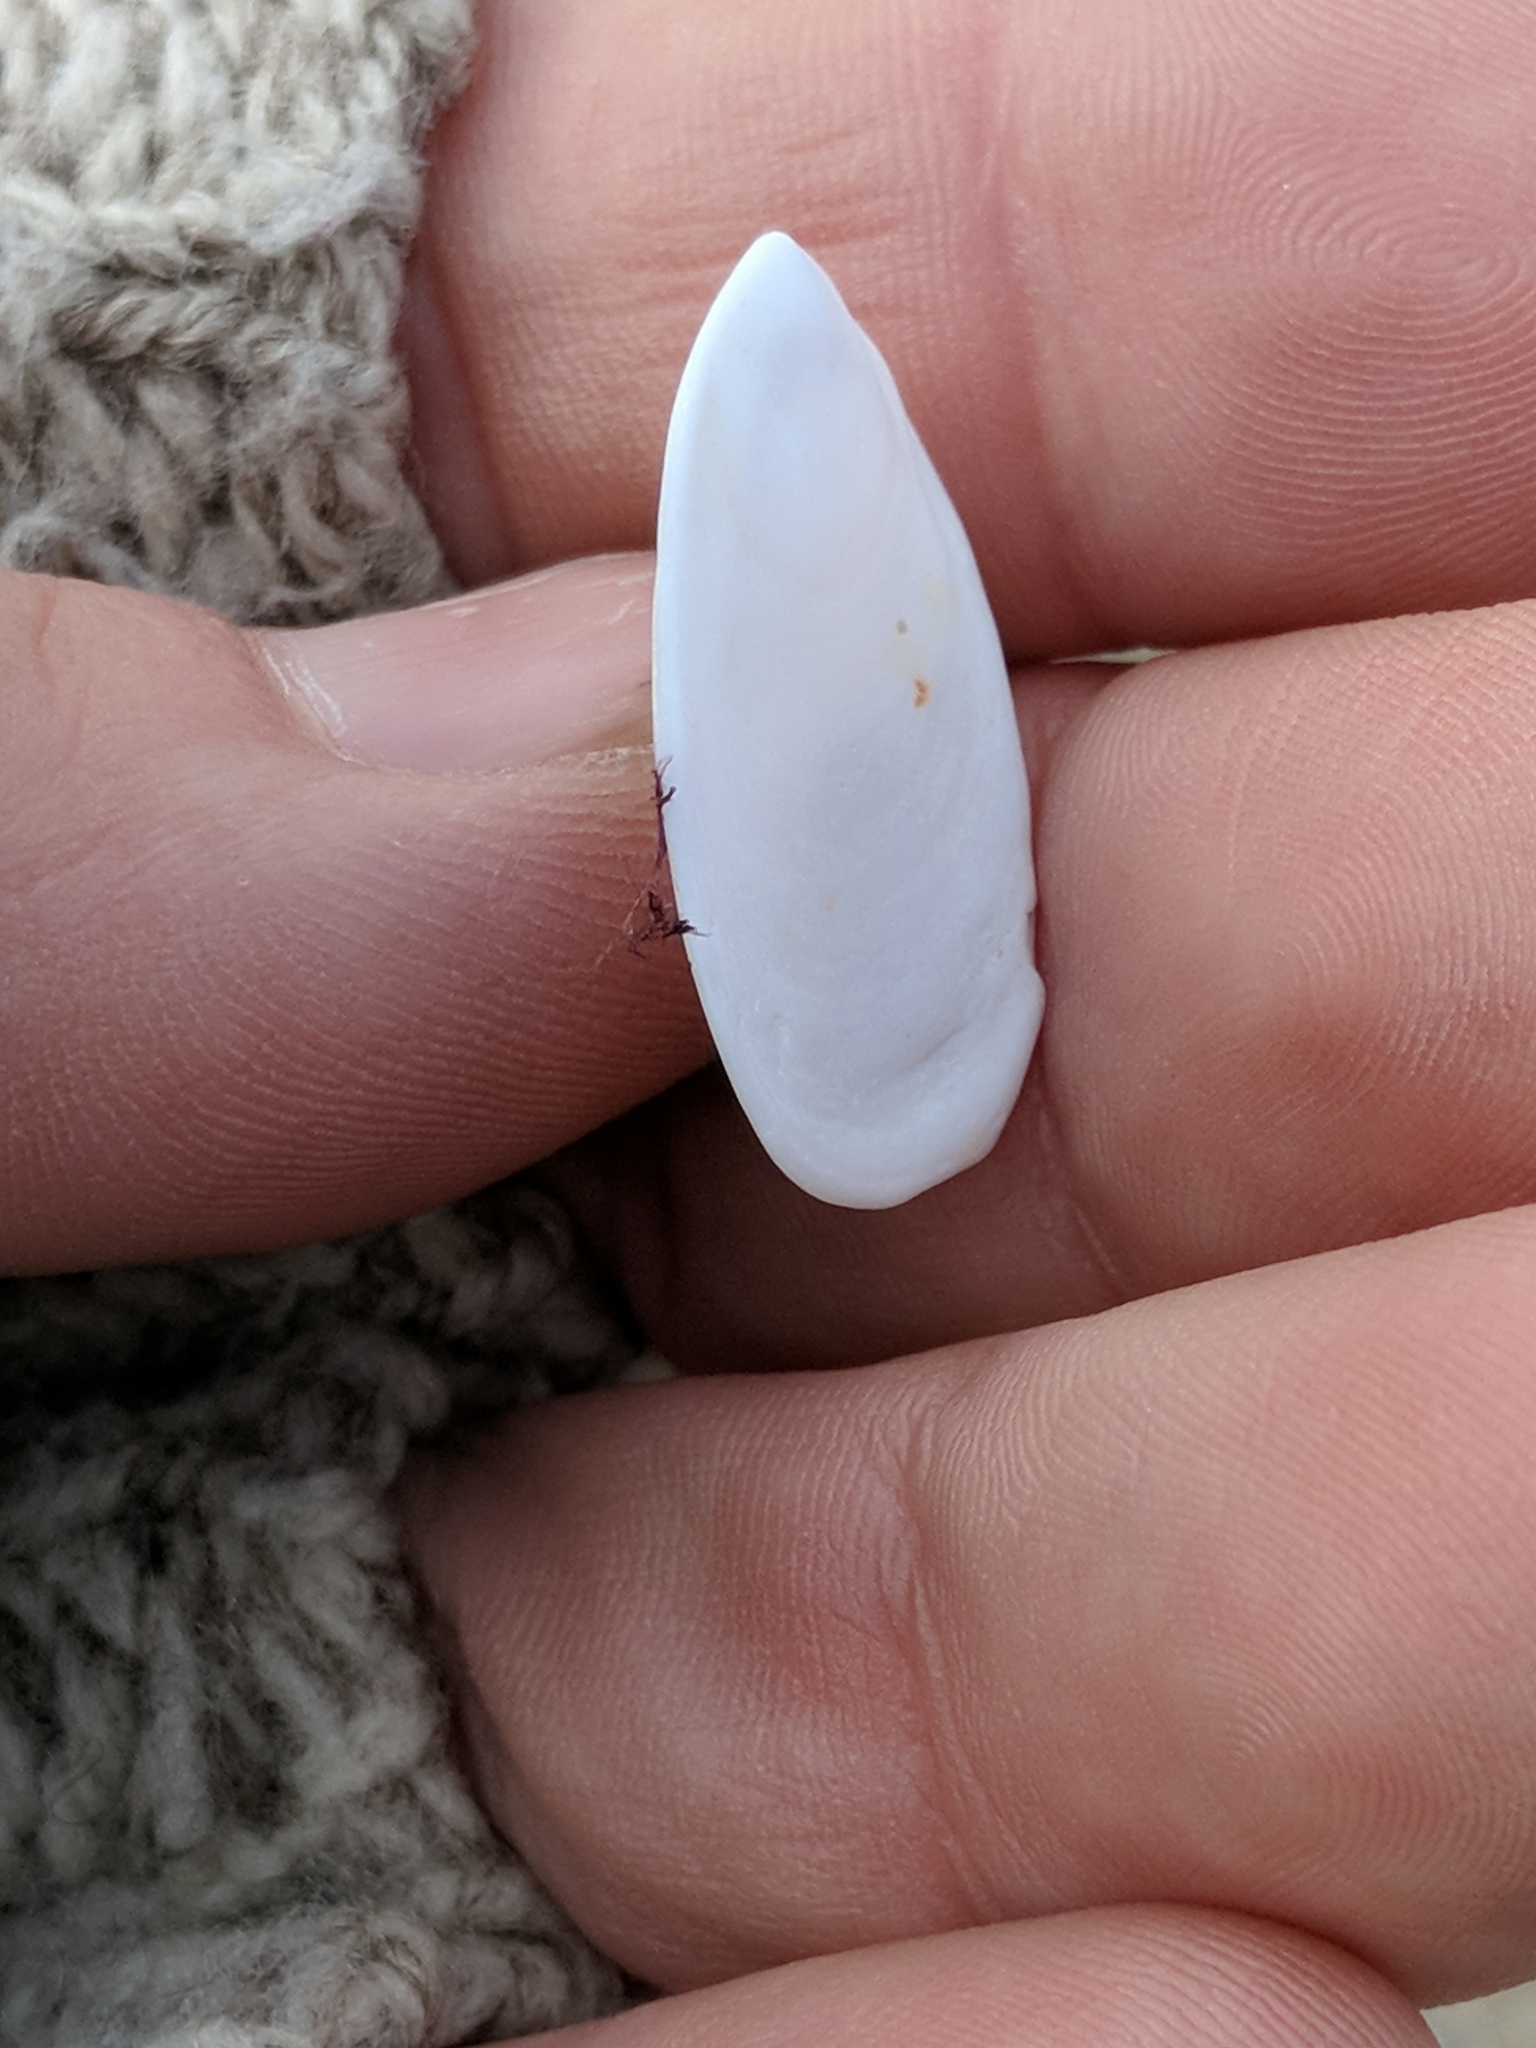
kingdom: Animalia
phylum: Mollusca
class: Gastropoda
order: Littorinimorpha
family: Calyptraeidae
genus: Crepidula
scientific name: Crepidula plana
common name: Eastern white slippersnail
